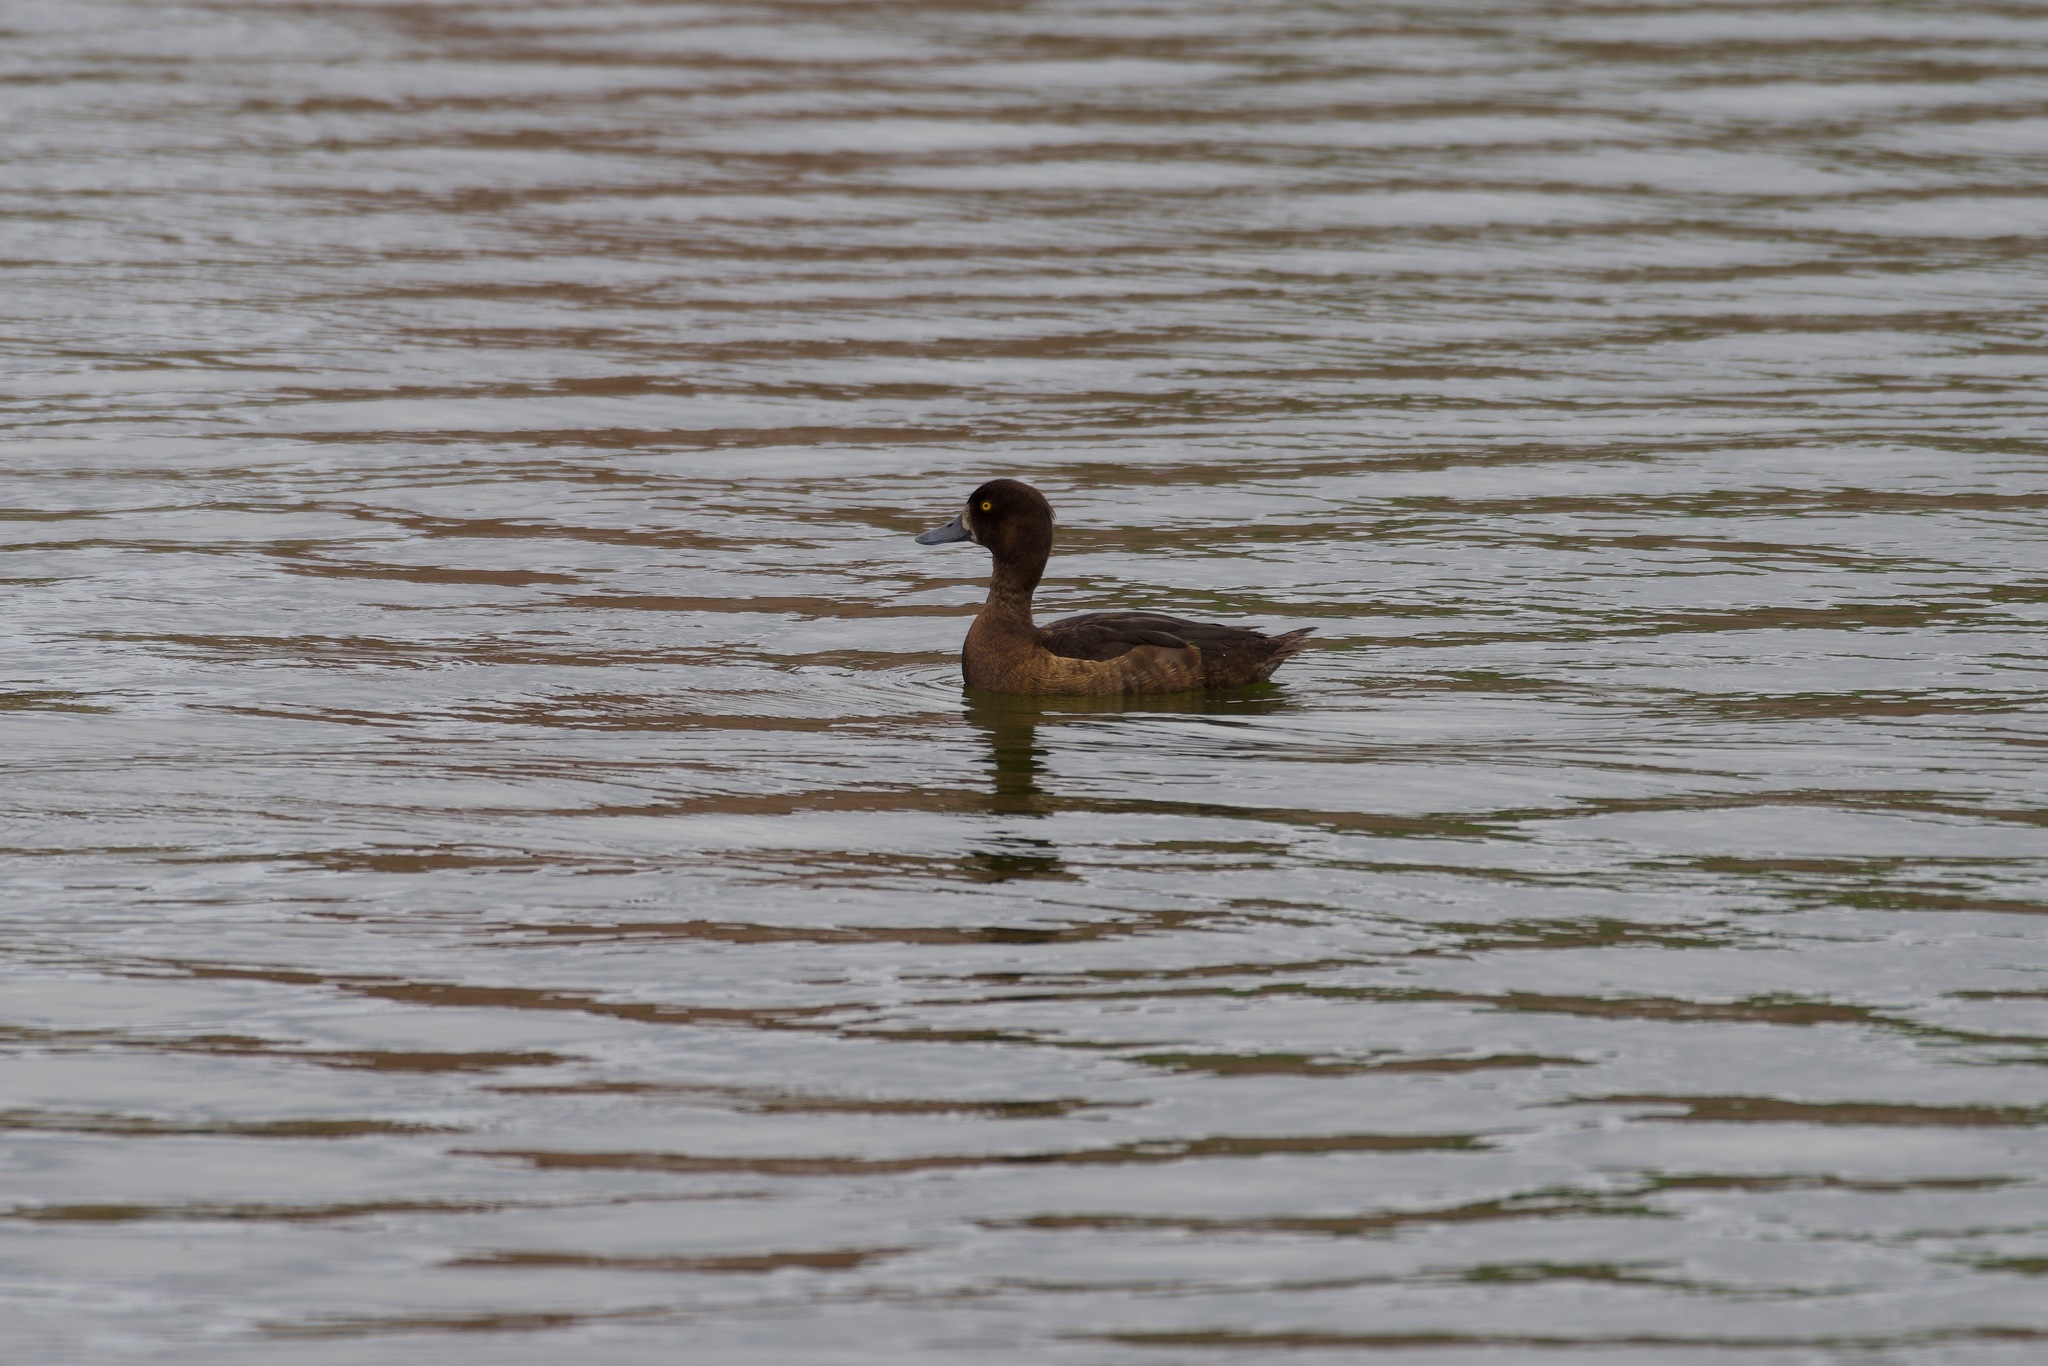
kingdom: Animalia
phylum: Chordata
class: Aves
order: Anseriformes
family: Anatidae
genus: Aythya
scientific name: Aythya fuligula
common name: Tufted duck
